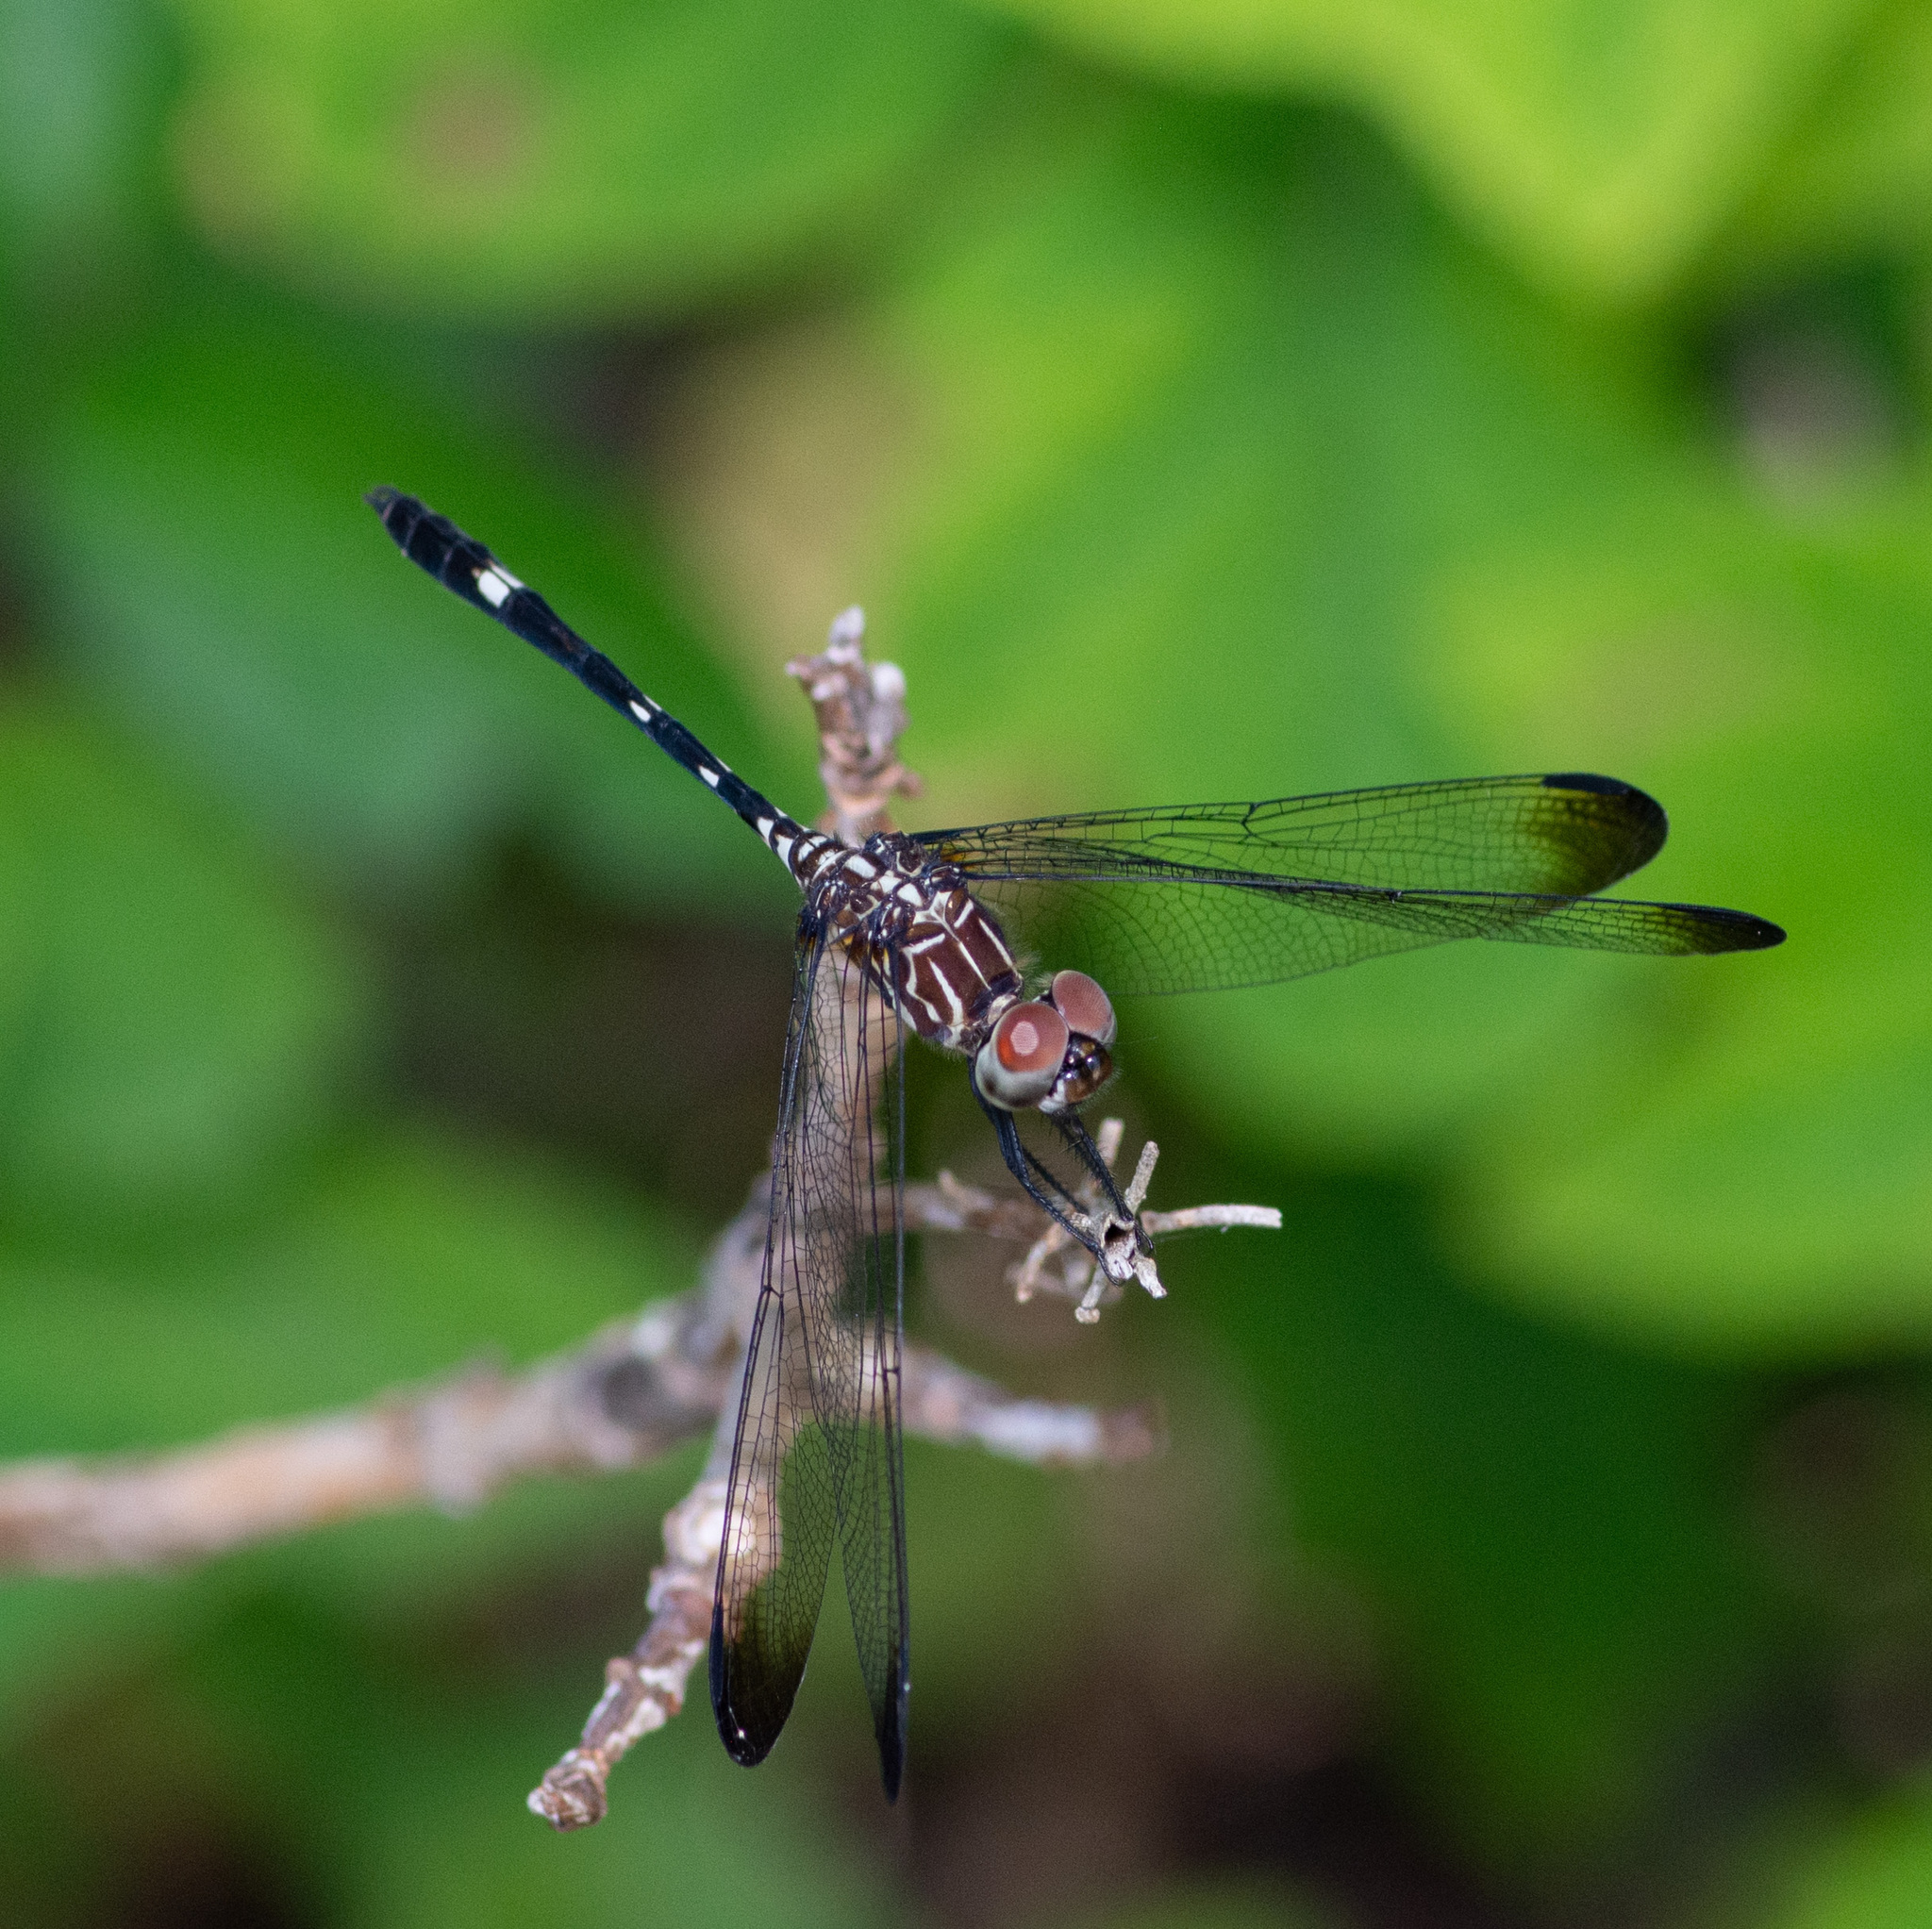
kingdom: Animalia
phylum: Arthropoda
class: Insecta
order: Odonata
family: Libellulidae
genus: Dythemis
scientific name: Dythemis velox
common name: Swift setwing
